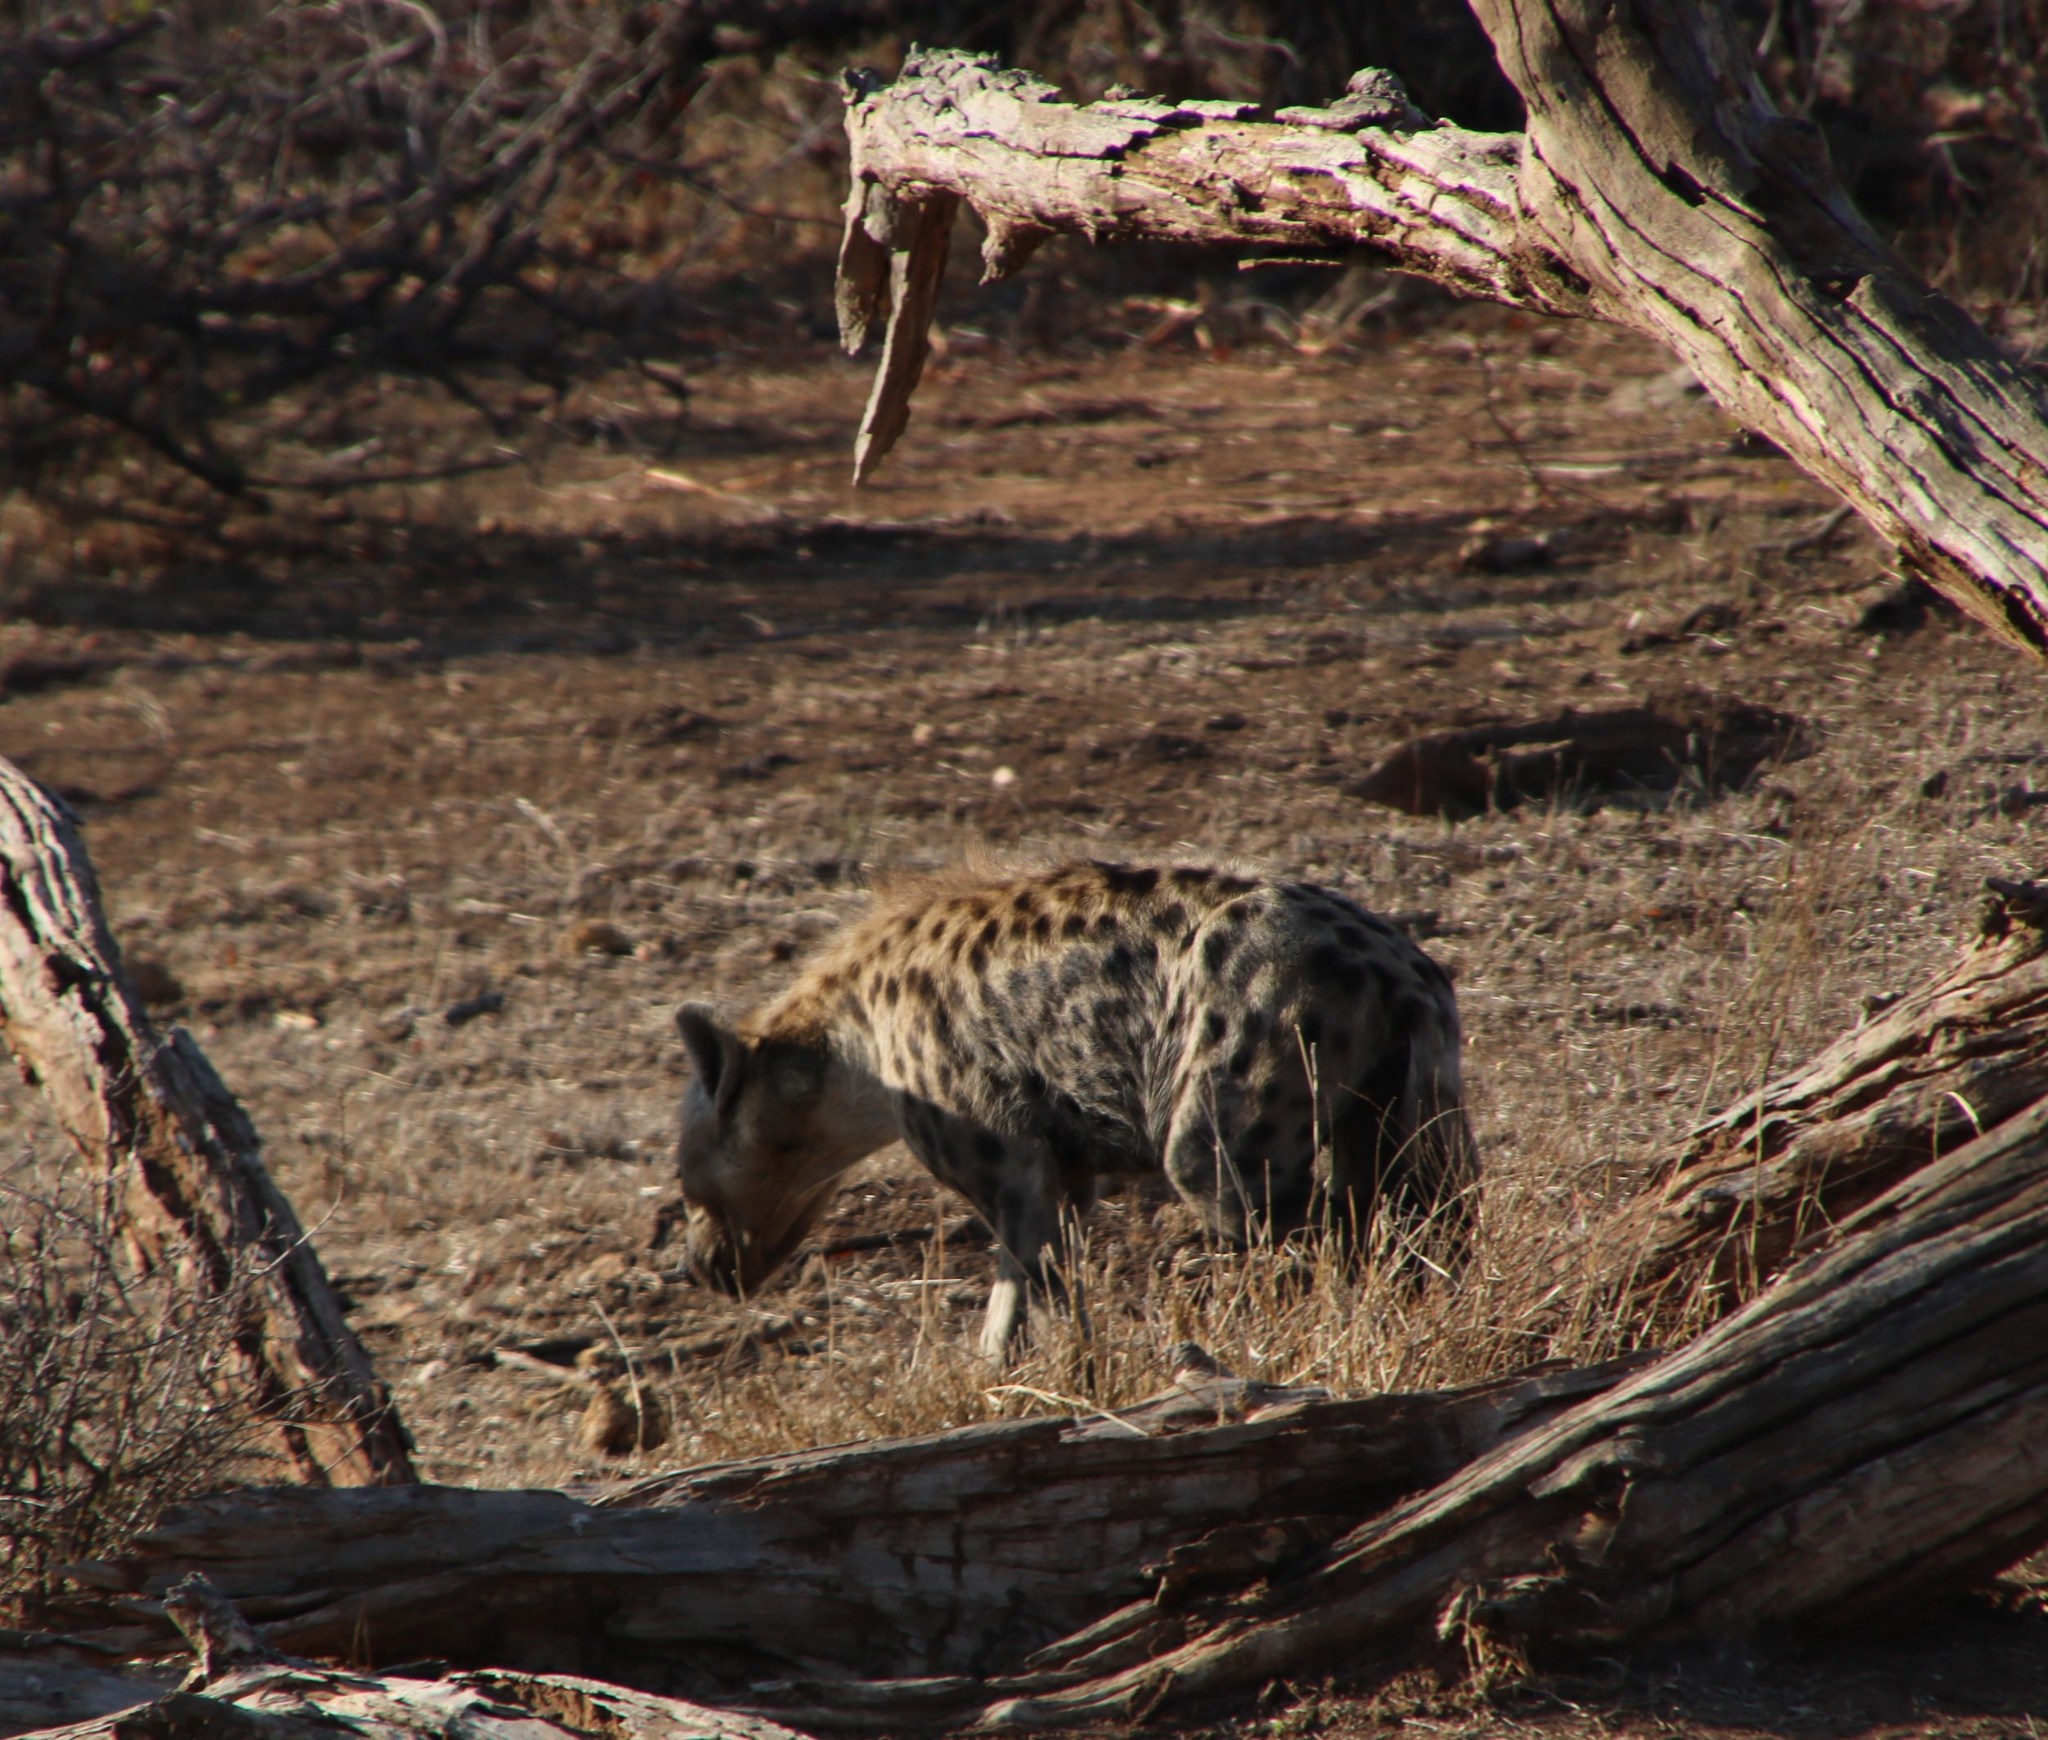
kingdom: Animalia
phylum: Chordata
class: Mammalia
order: Carnivora
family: Hyaenidae
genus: Crocuta
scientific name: Crocuta crocuta
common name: Spotted hyaena
